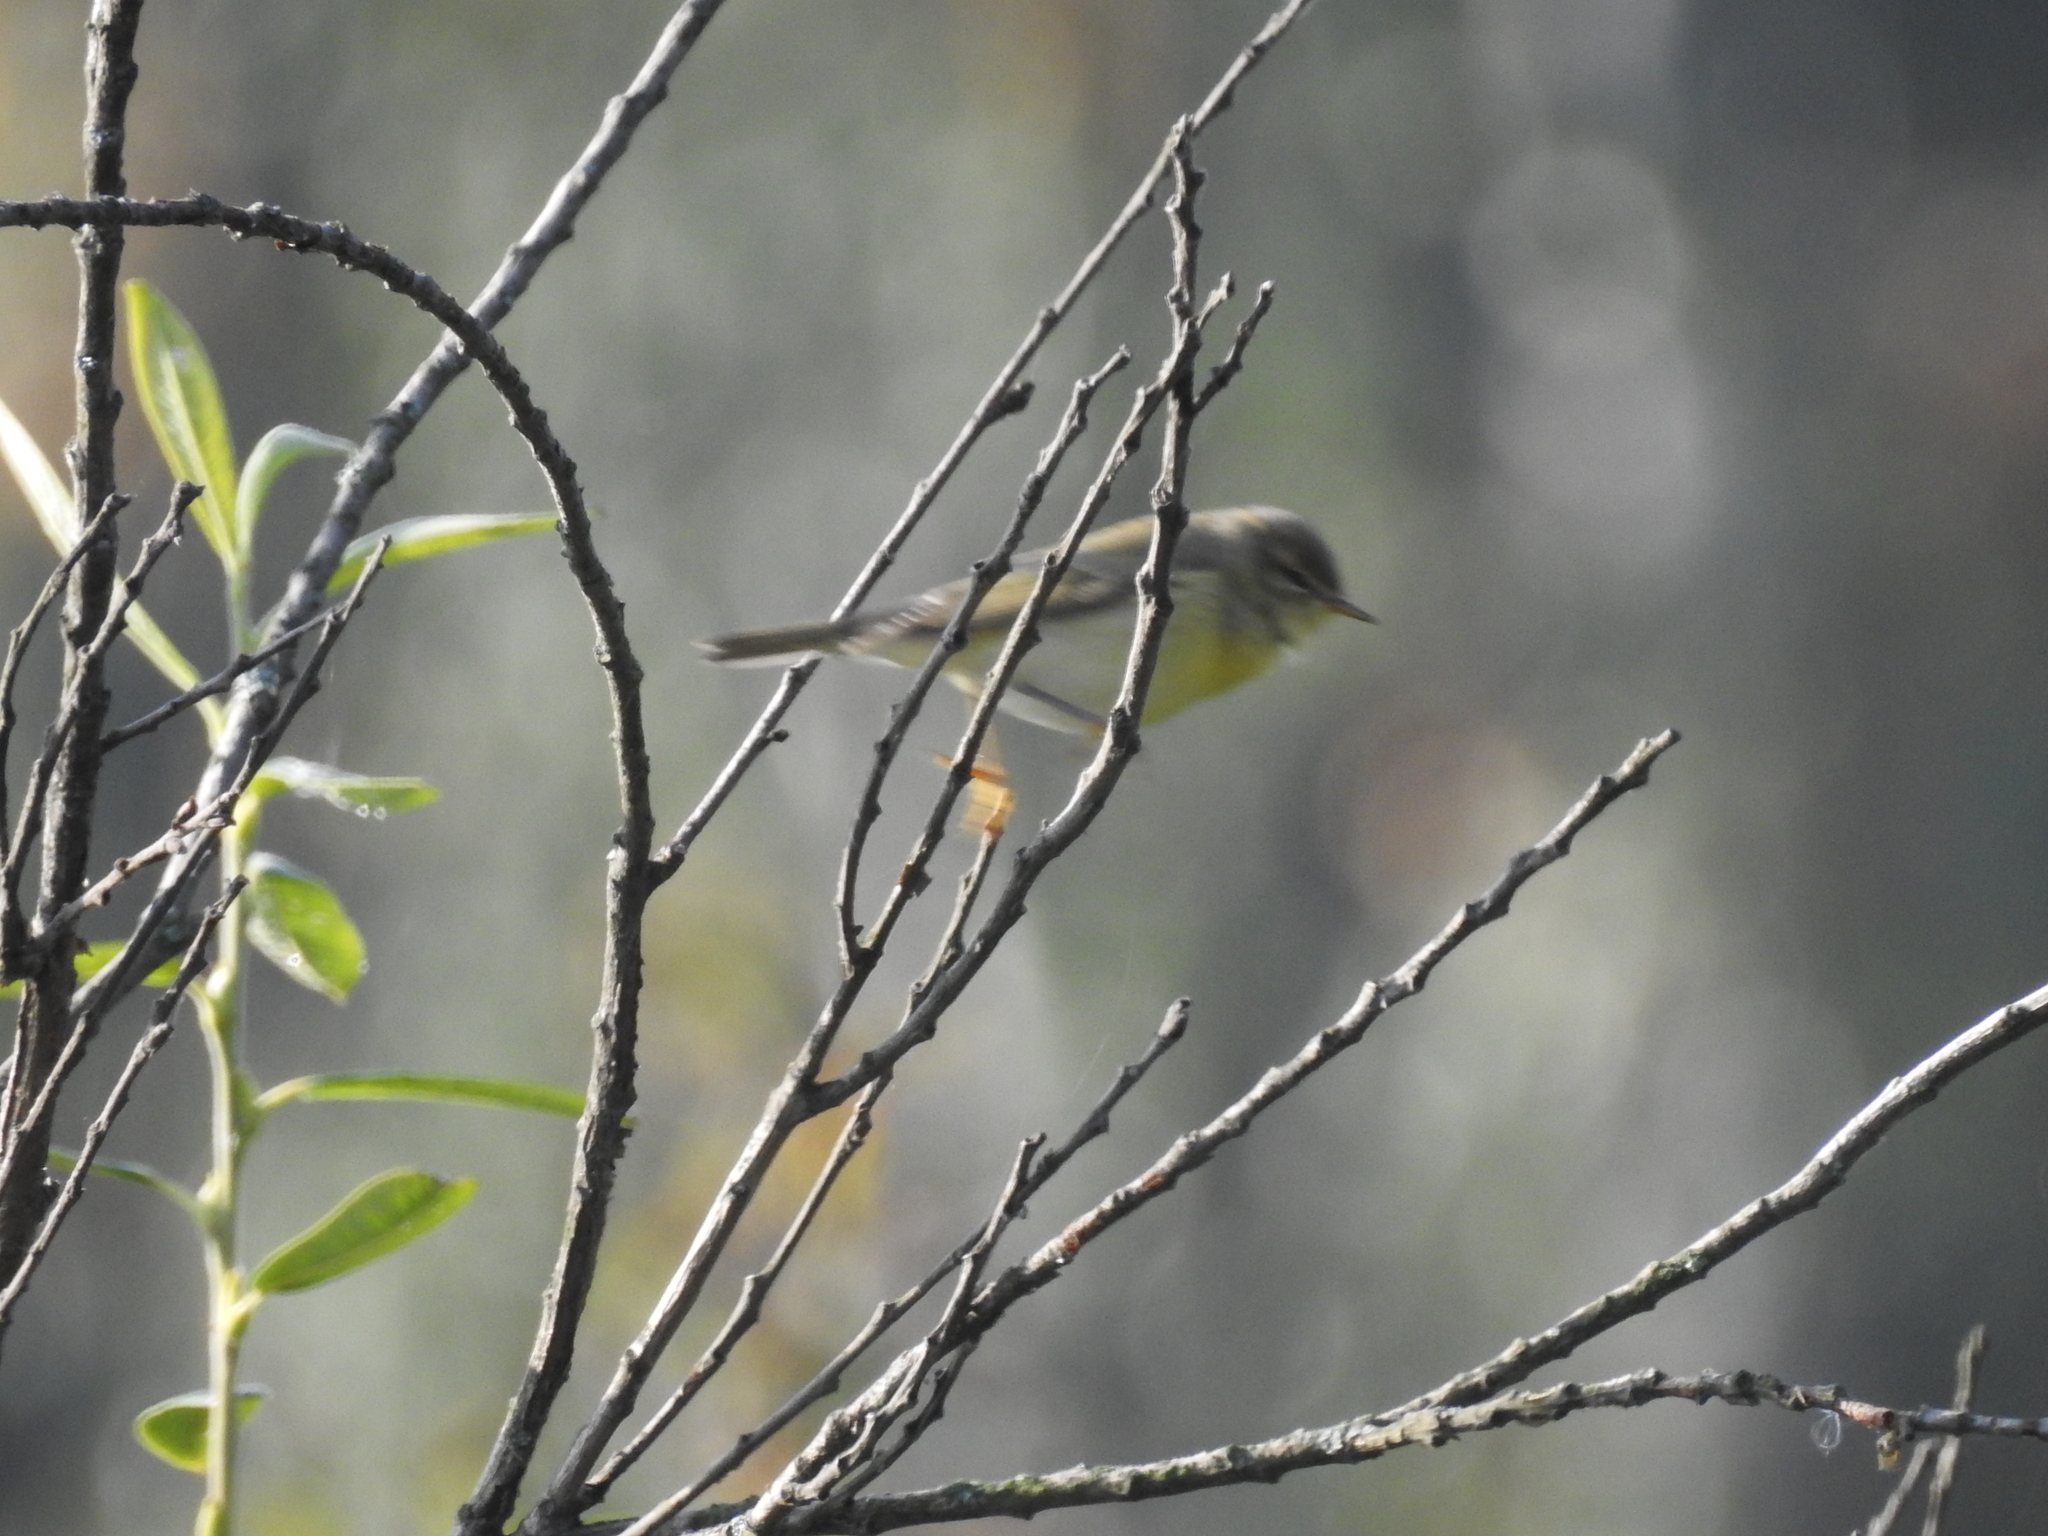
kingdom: Animalia
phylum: Chordata
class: Aves
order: Passeriformes
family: Phylloscopidae
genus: Phylloscopus
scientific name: Phylloscopus trochilus
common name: Willow warbler
